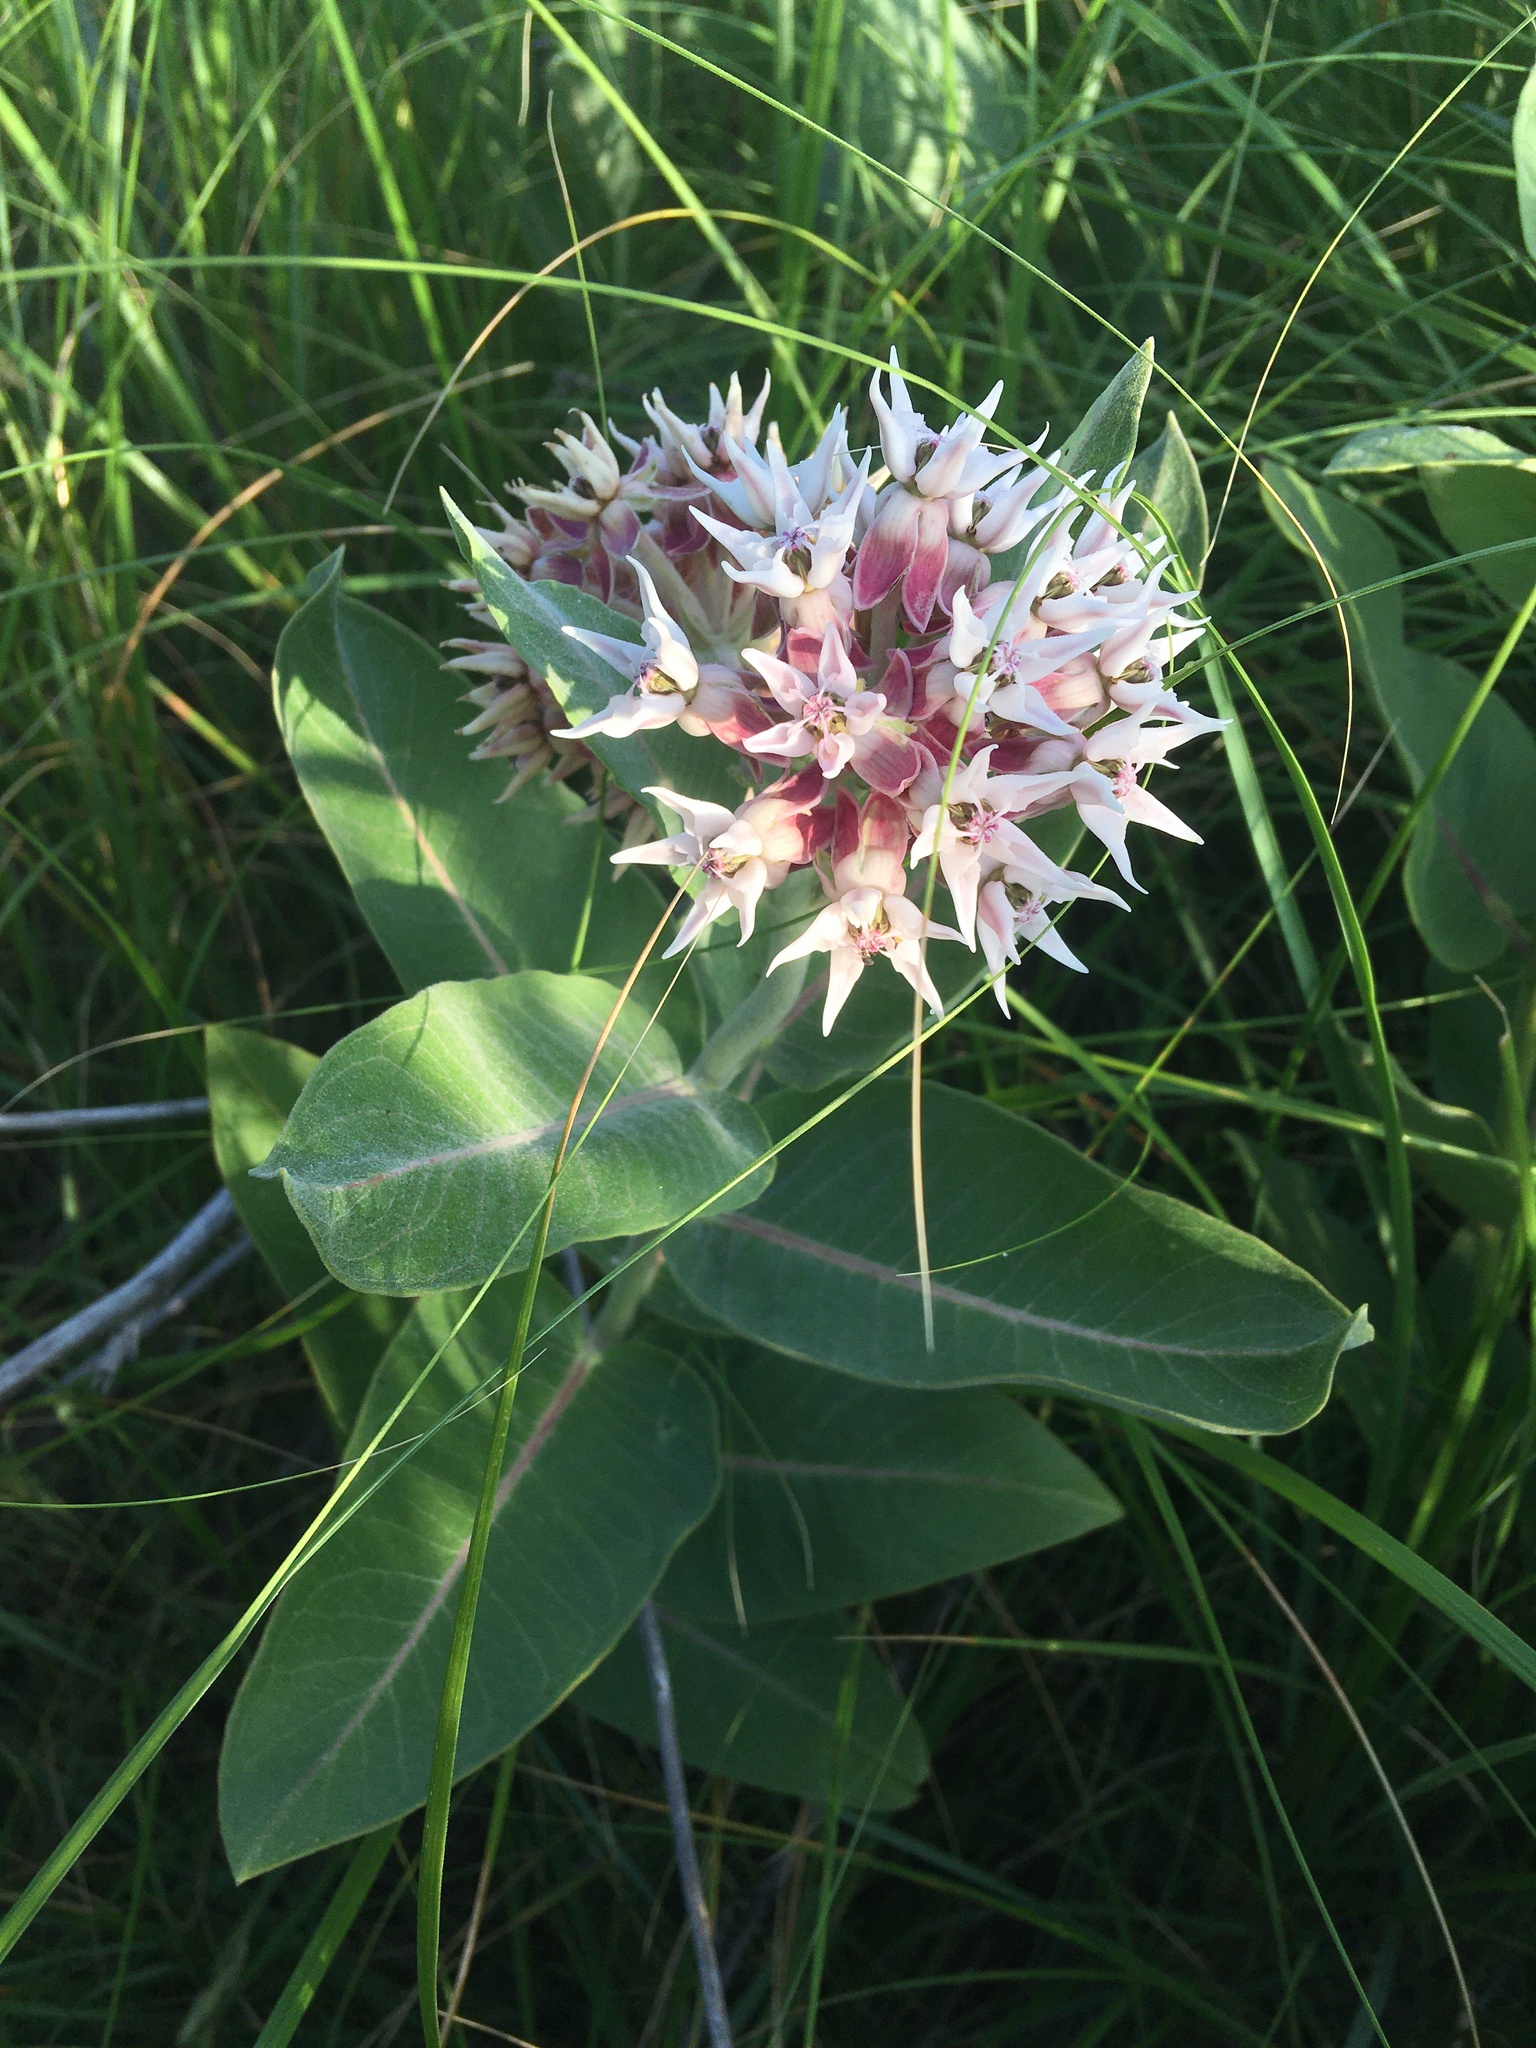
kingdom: Plantae
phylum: Tracheophyta
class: Magnoliopsida
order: Gentianales
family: Apocynaceae
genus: Asclepias
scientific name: Asclepias speciosa
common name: Showy milkweed
